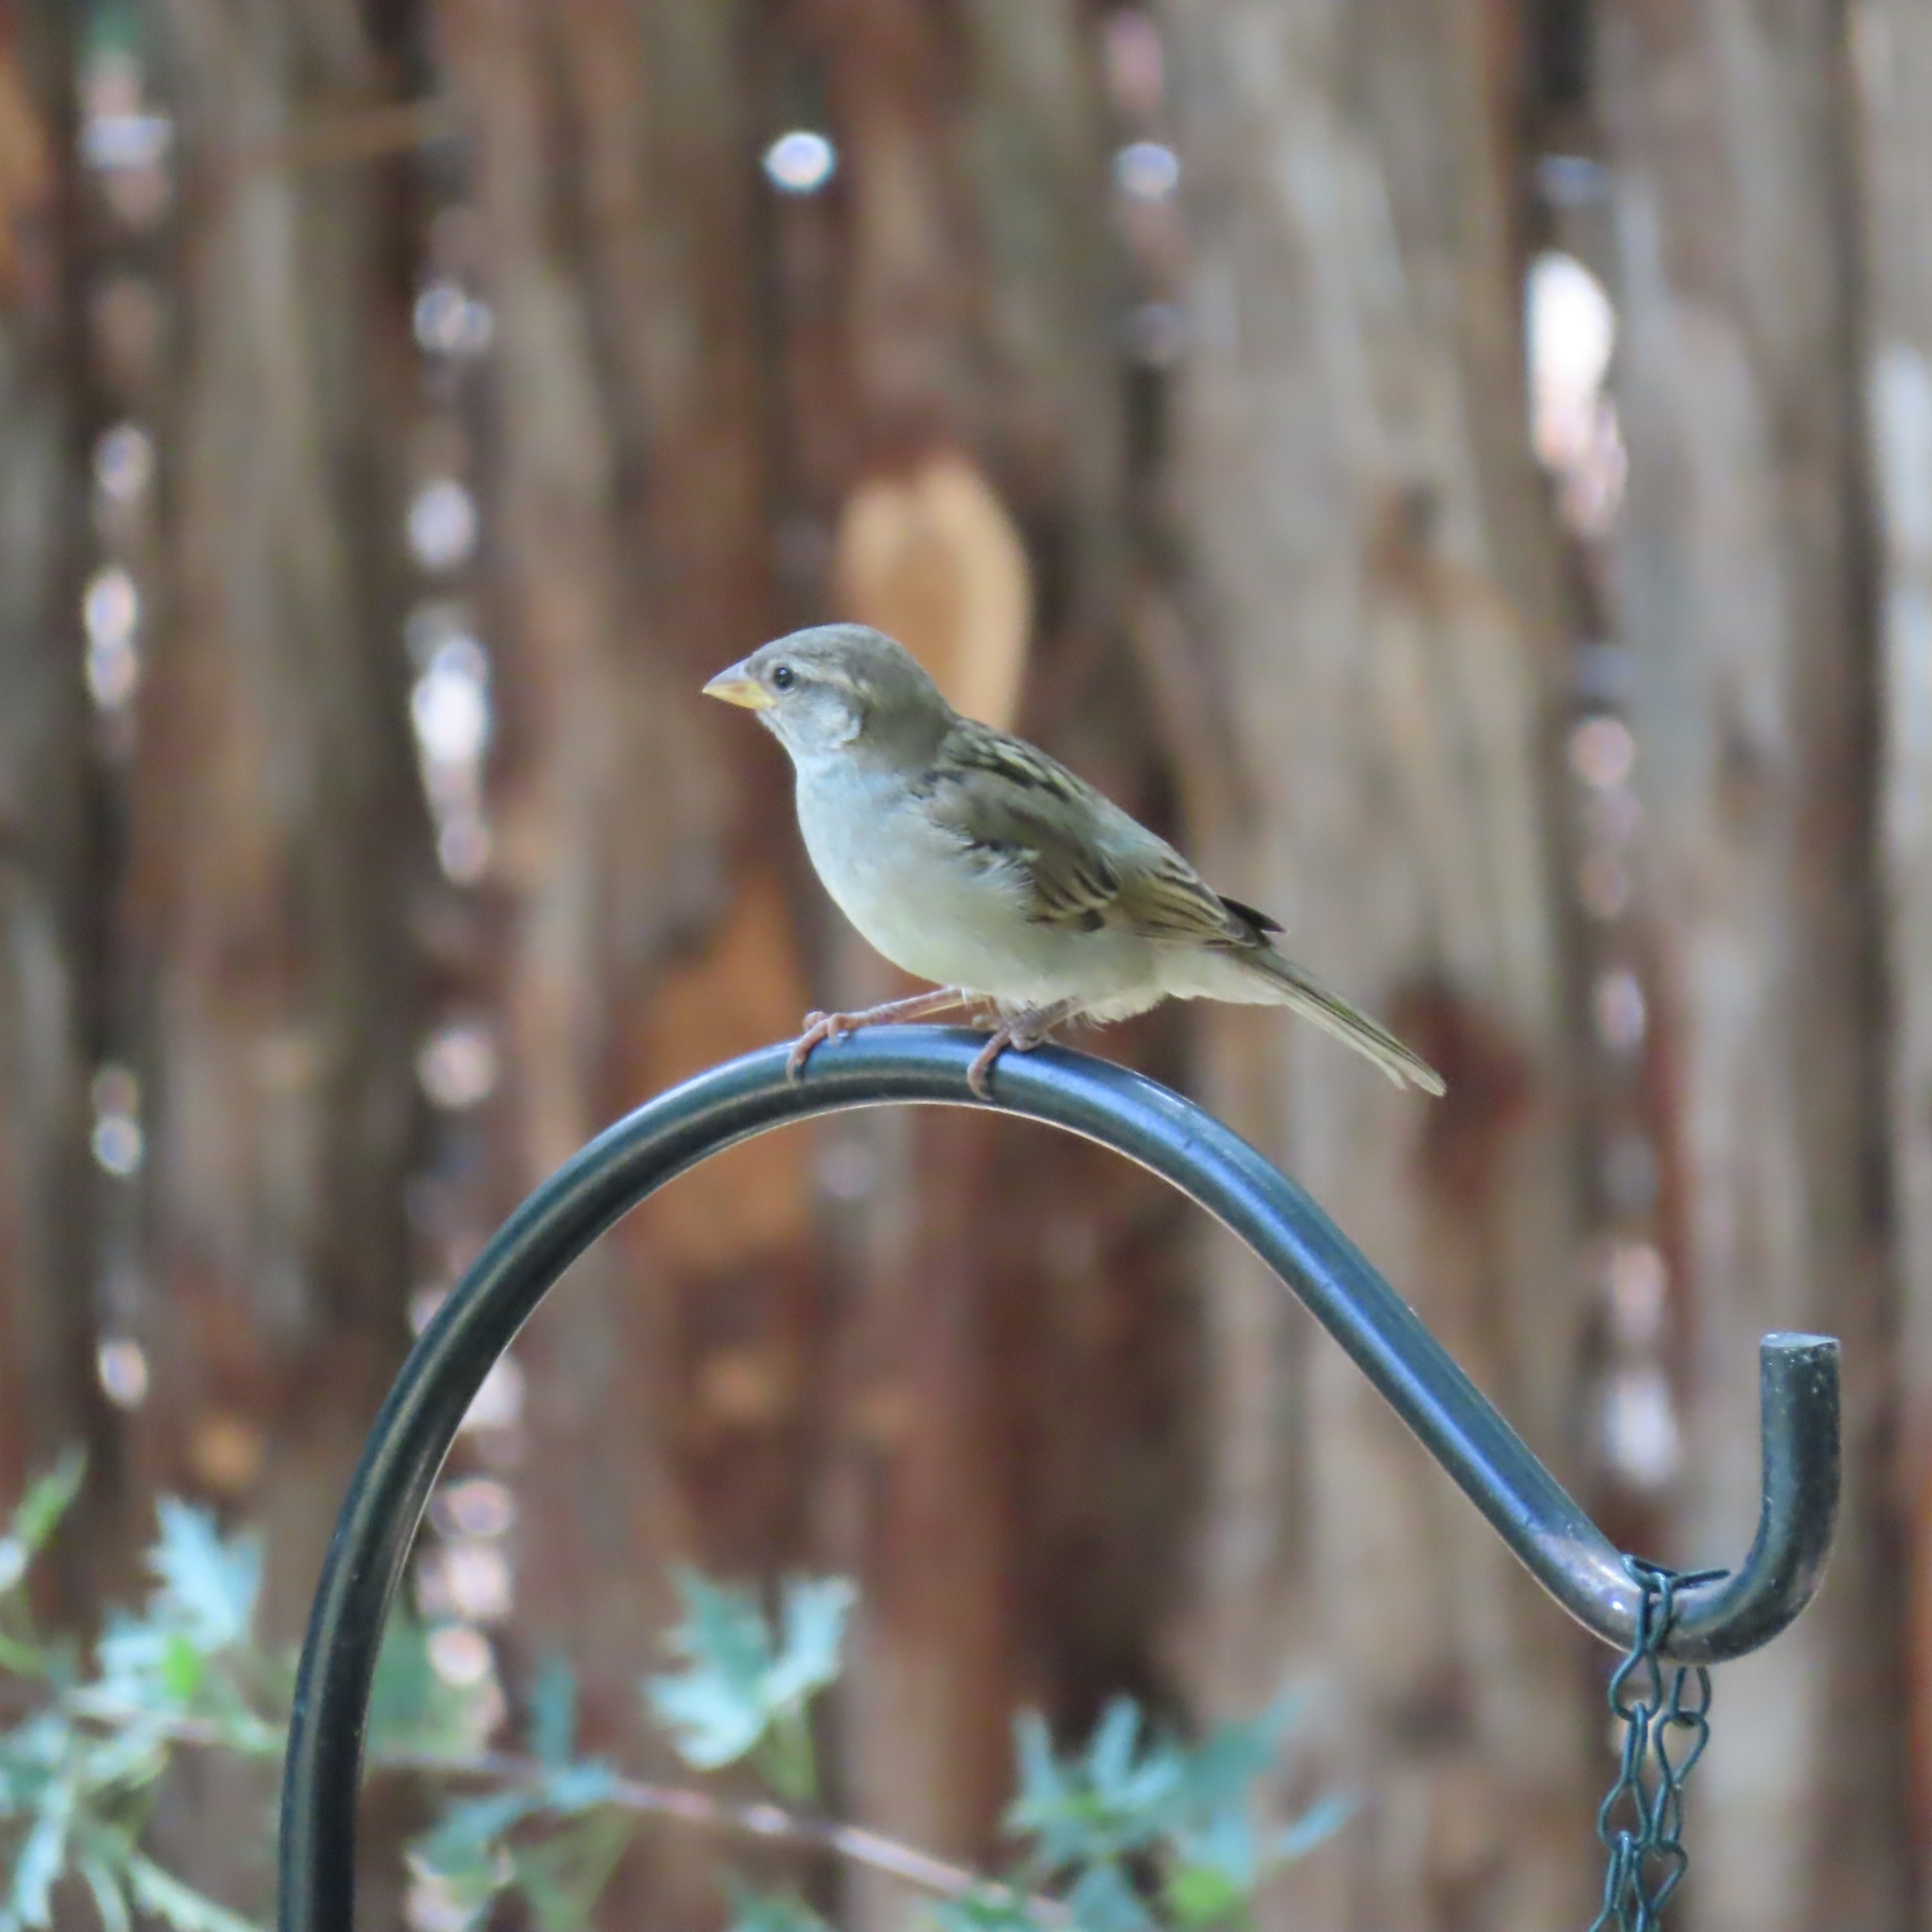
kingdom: Animalia
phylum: Chordata
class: Aves
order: Passeriformes
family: Passeridae
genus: Passer
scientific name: Passer domesticus
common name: House sparrow
